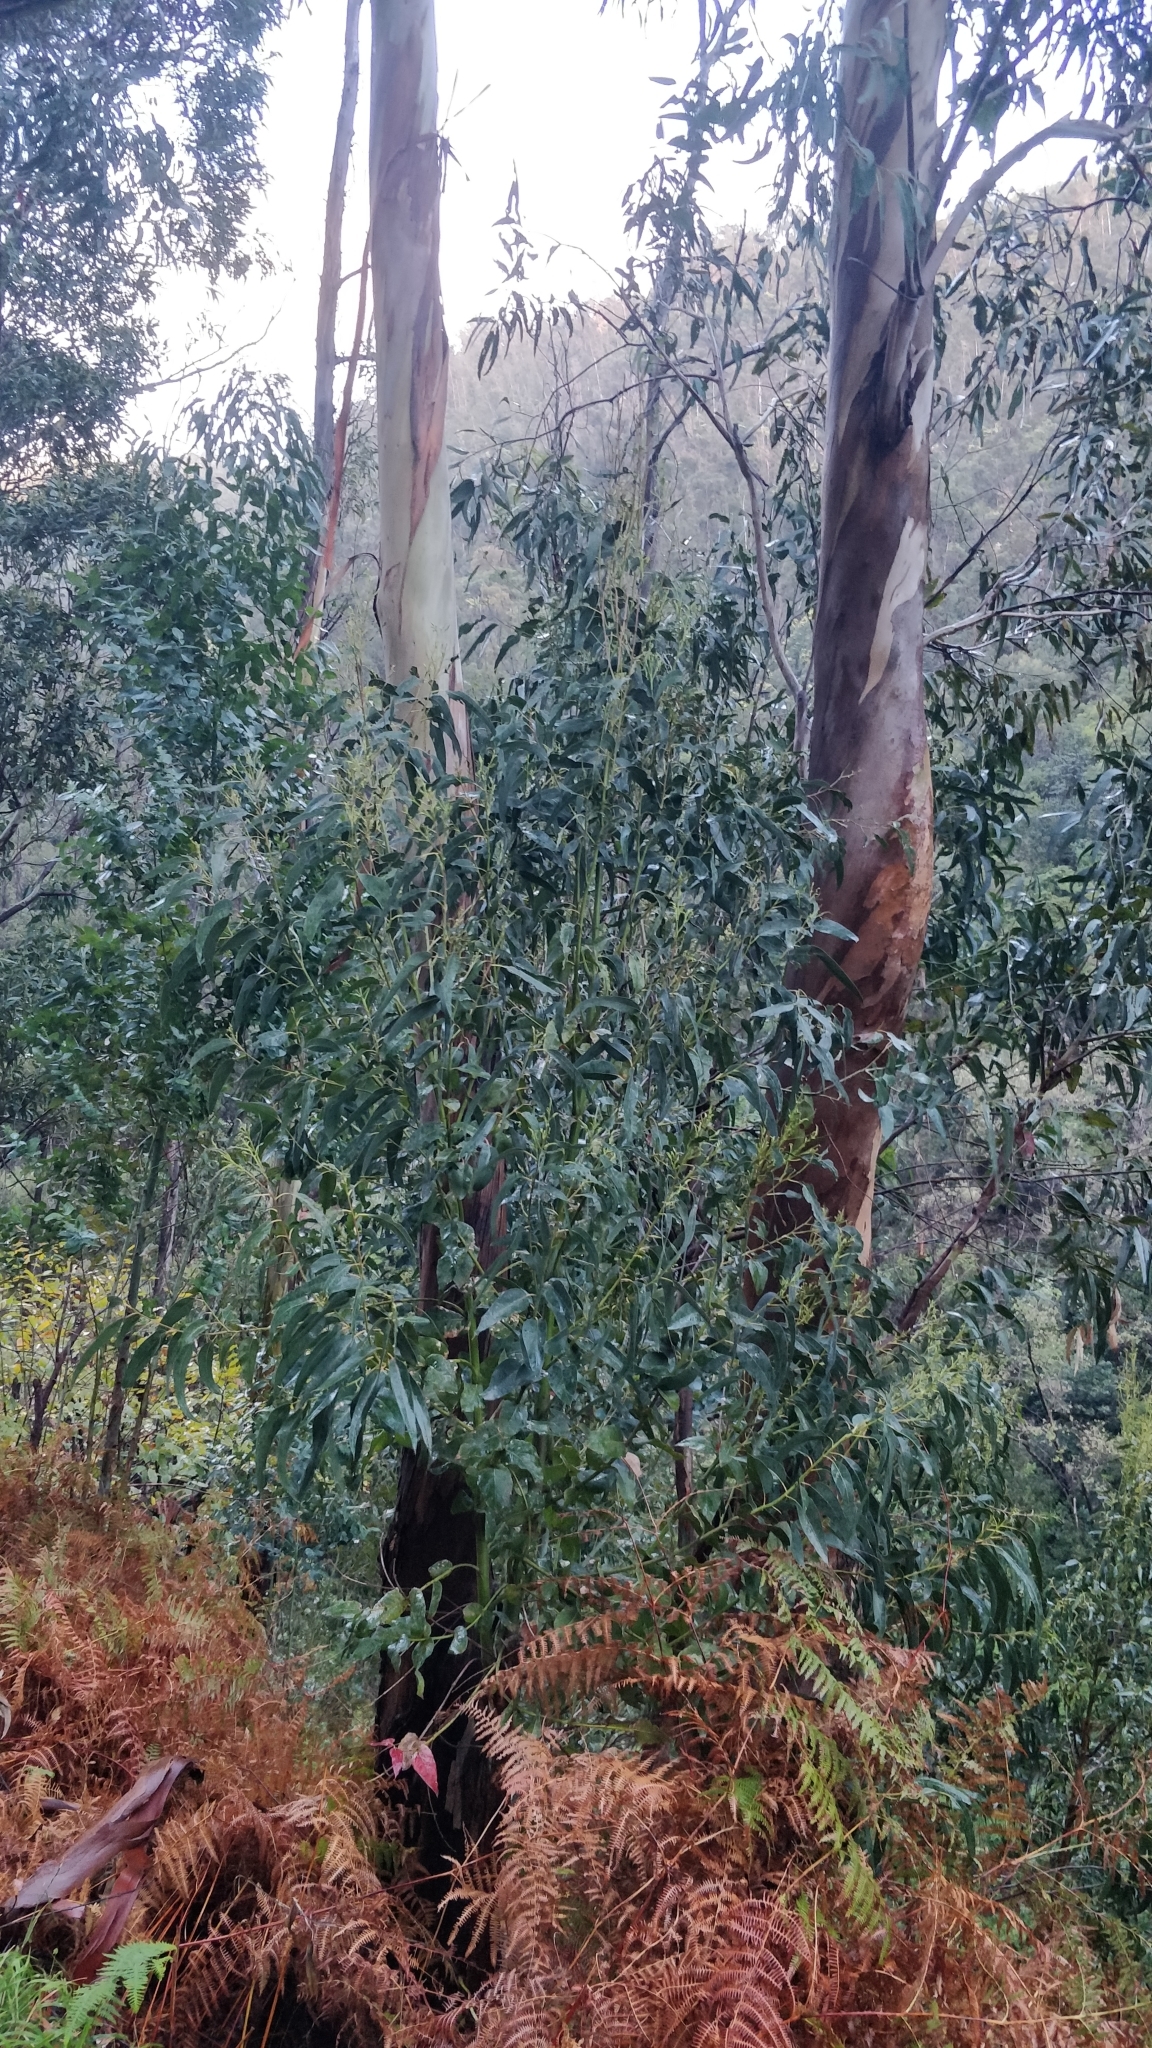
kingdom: Plantae
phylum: Tracheophyta
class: Magnoliopsida
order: Myrtales
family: Myrtaceae
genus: Eucalyptus
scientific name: Eucalyptus globulus
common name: Southern blue-gum
